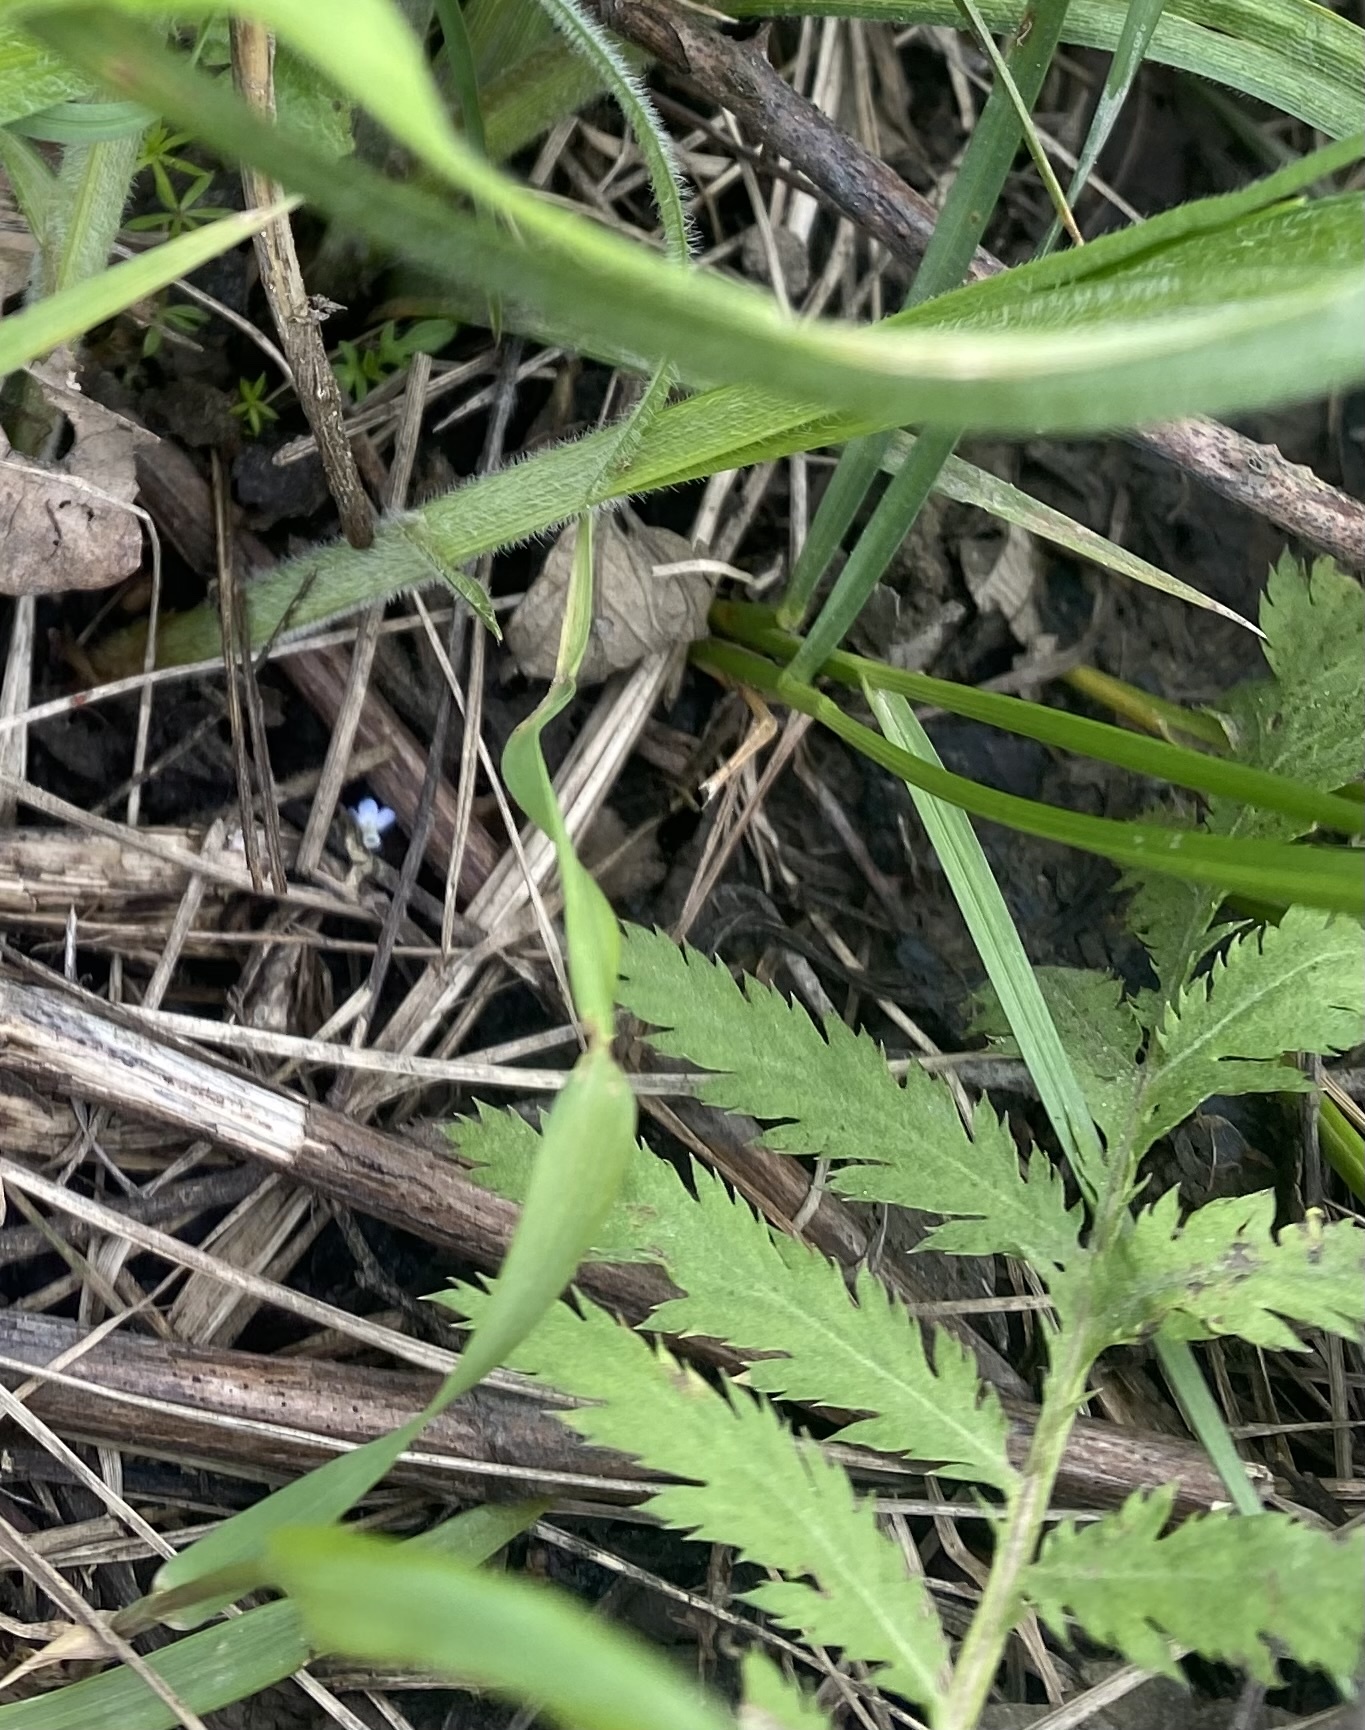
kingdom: Plantae
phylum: Tracheophyta
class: Magnoliopsida
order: Asterales
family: Asteraceae
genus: Tanacetum
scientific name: Tanacetum poteriifolium
